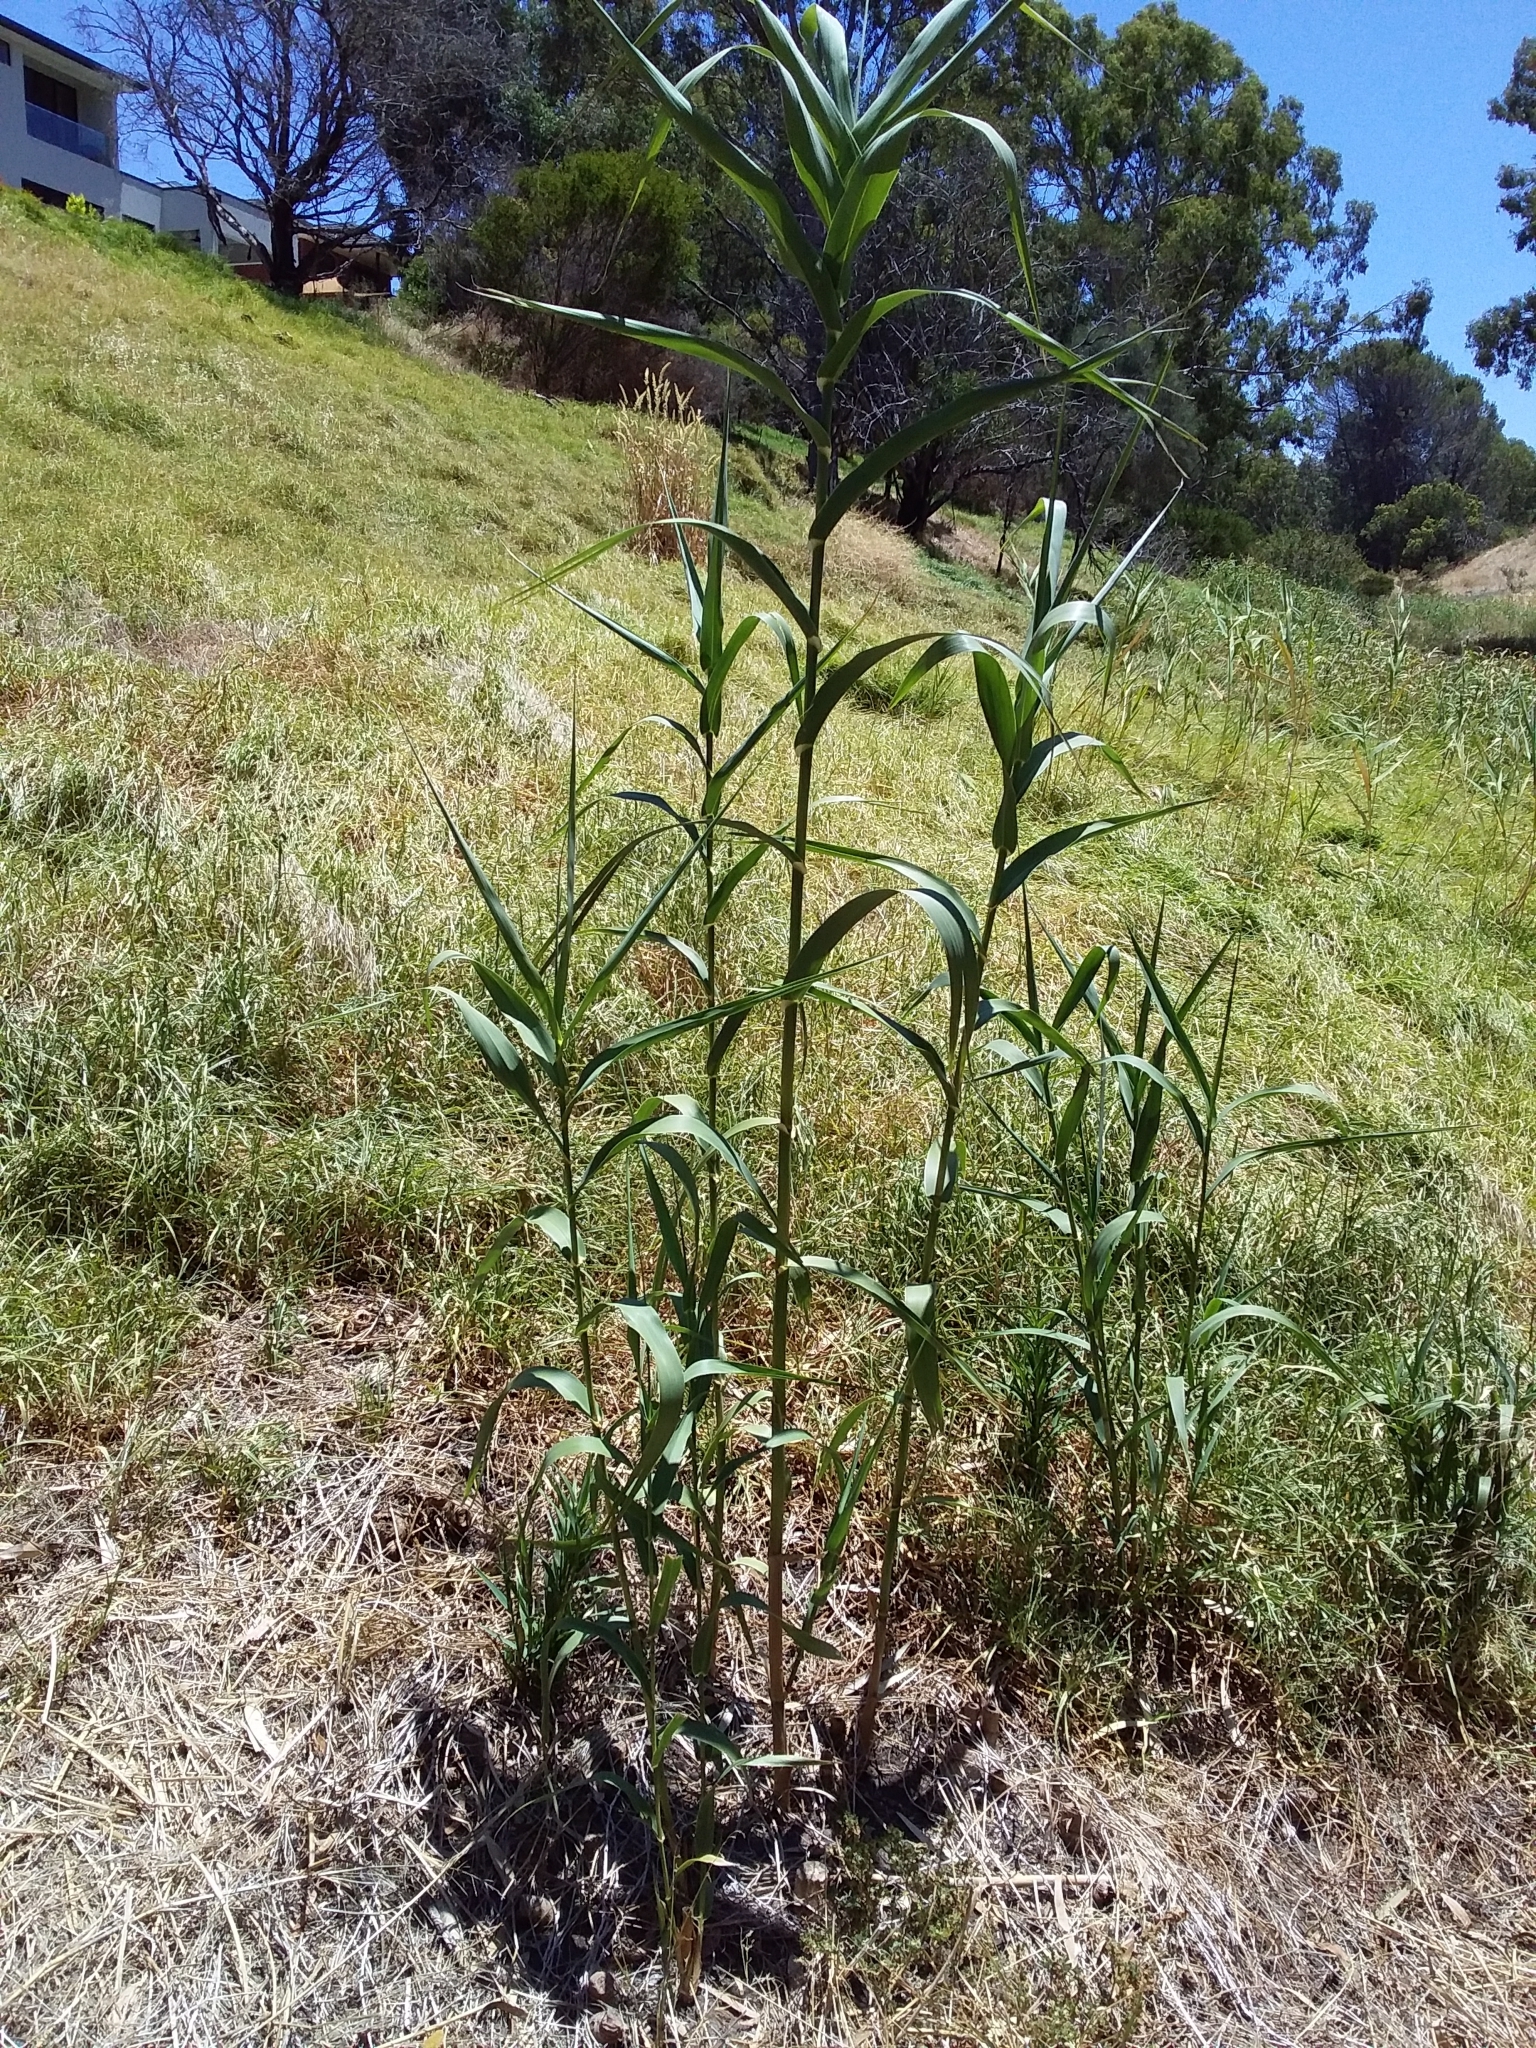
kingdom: Plantae
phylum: Tracheophyta
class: Liliopsida
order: Poales
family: Poaceae
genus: Arundo
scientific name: Arundo donax
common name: Giant reed
